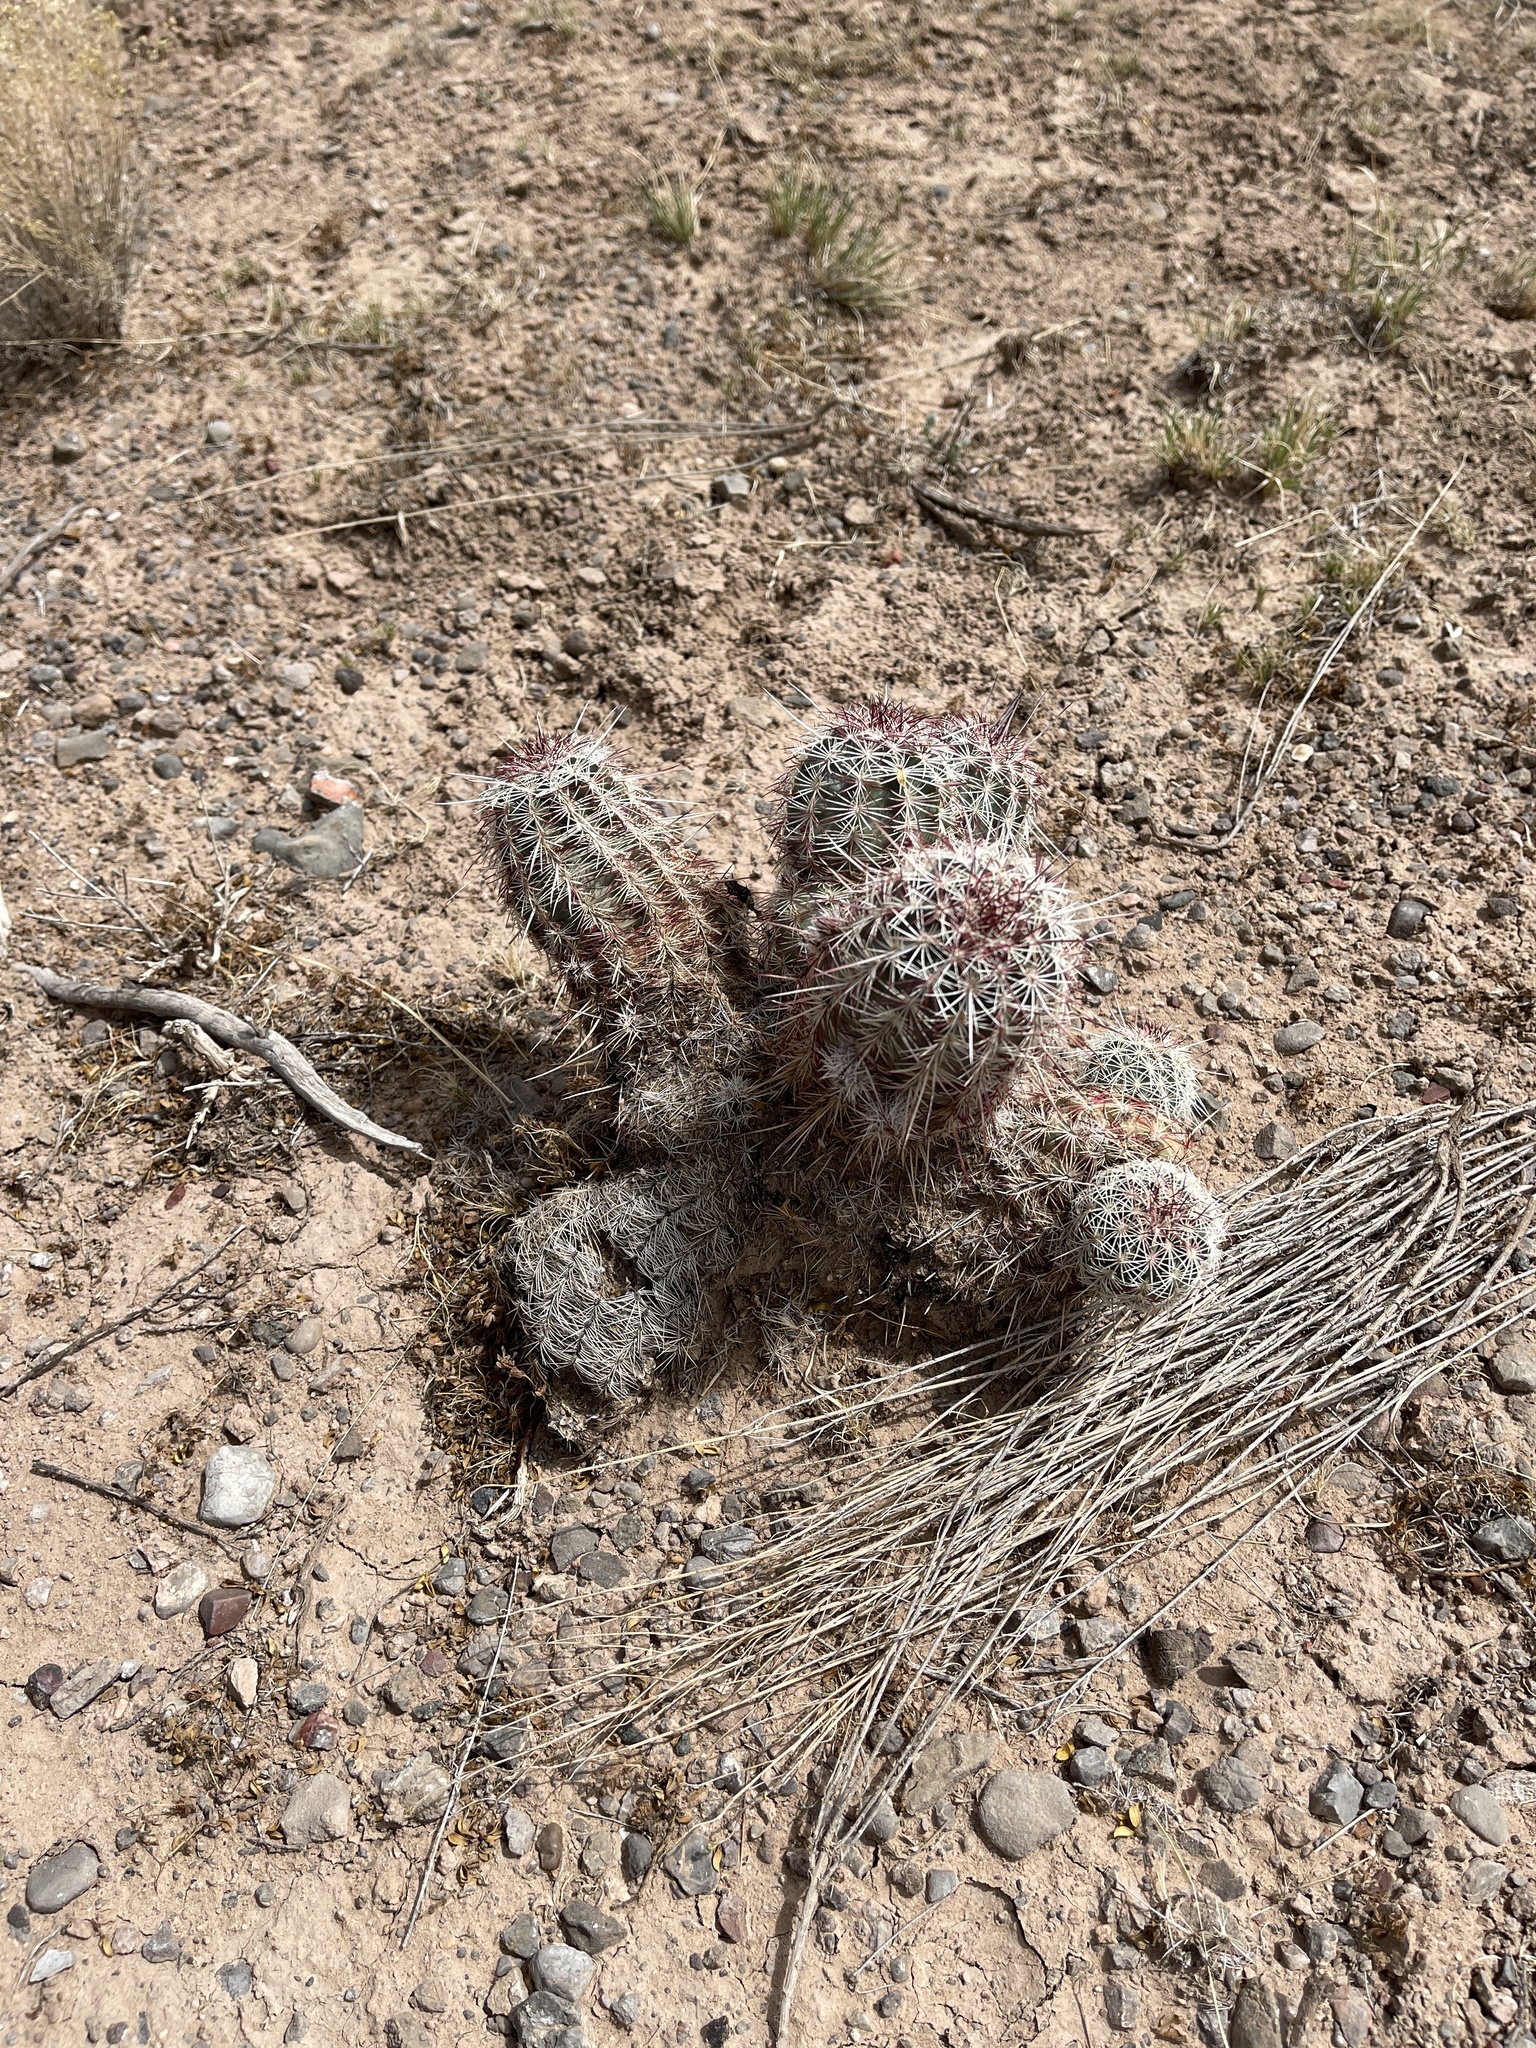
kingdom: Plantae
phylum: Tracheophyta
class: Magnoliopsida
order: Caryophyllales
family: Cactaceae
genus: Echinocereus
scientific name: Echinocereus viridiflorus
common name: Nylon hedgehog cactus
